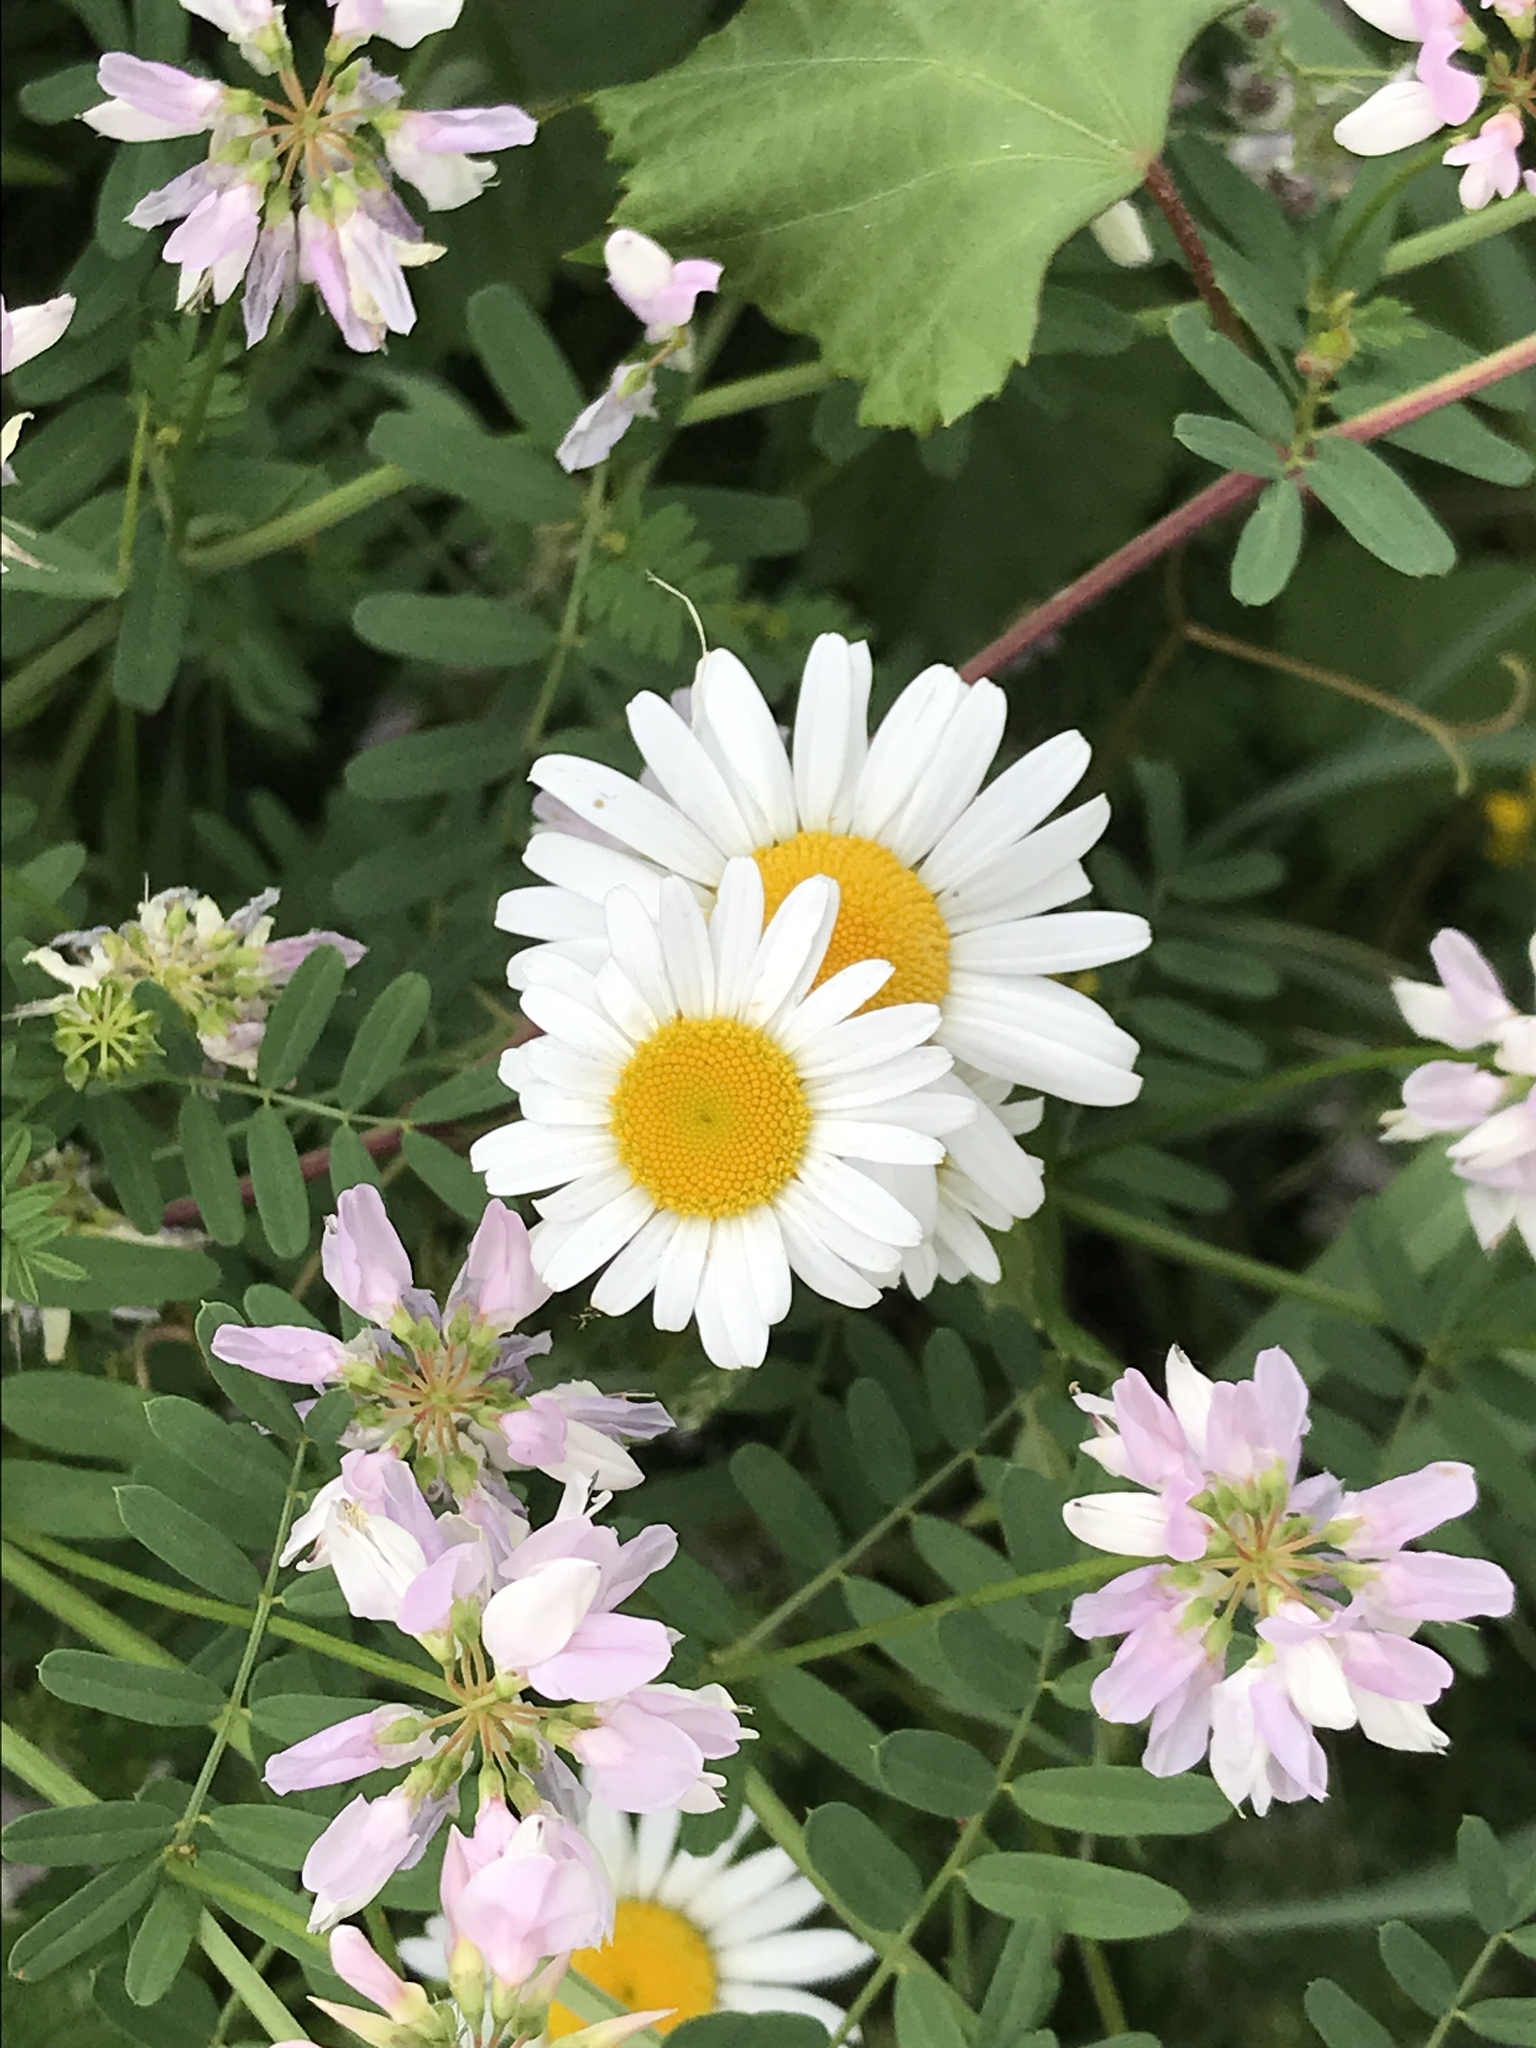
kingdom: Plantae
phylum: Tracheophyta
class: Magnoliopsida
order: Asterales
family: Asteraceae
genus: Leucanthemum
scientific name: Leucanthemum vulgare
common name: Oxeye daisy
